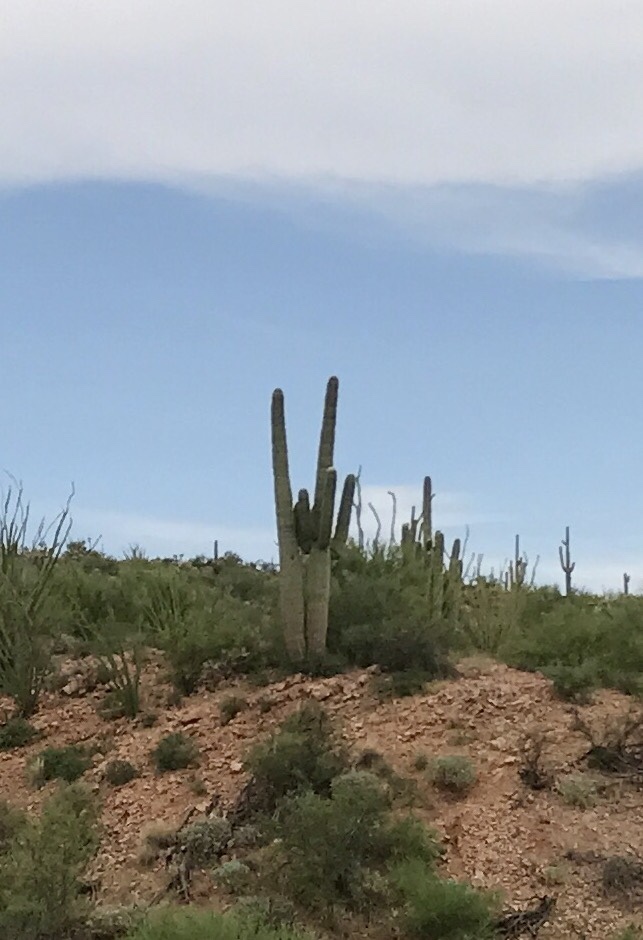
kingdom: Plantae
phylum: Tracheophyta
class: Magnoliopsida
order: Caryophyllales
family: Cactaceae
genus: Carnegiea
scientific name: Carnegiea gigantea
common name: Saguaro
